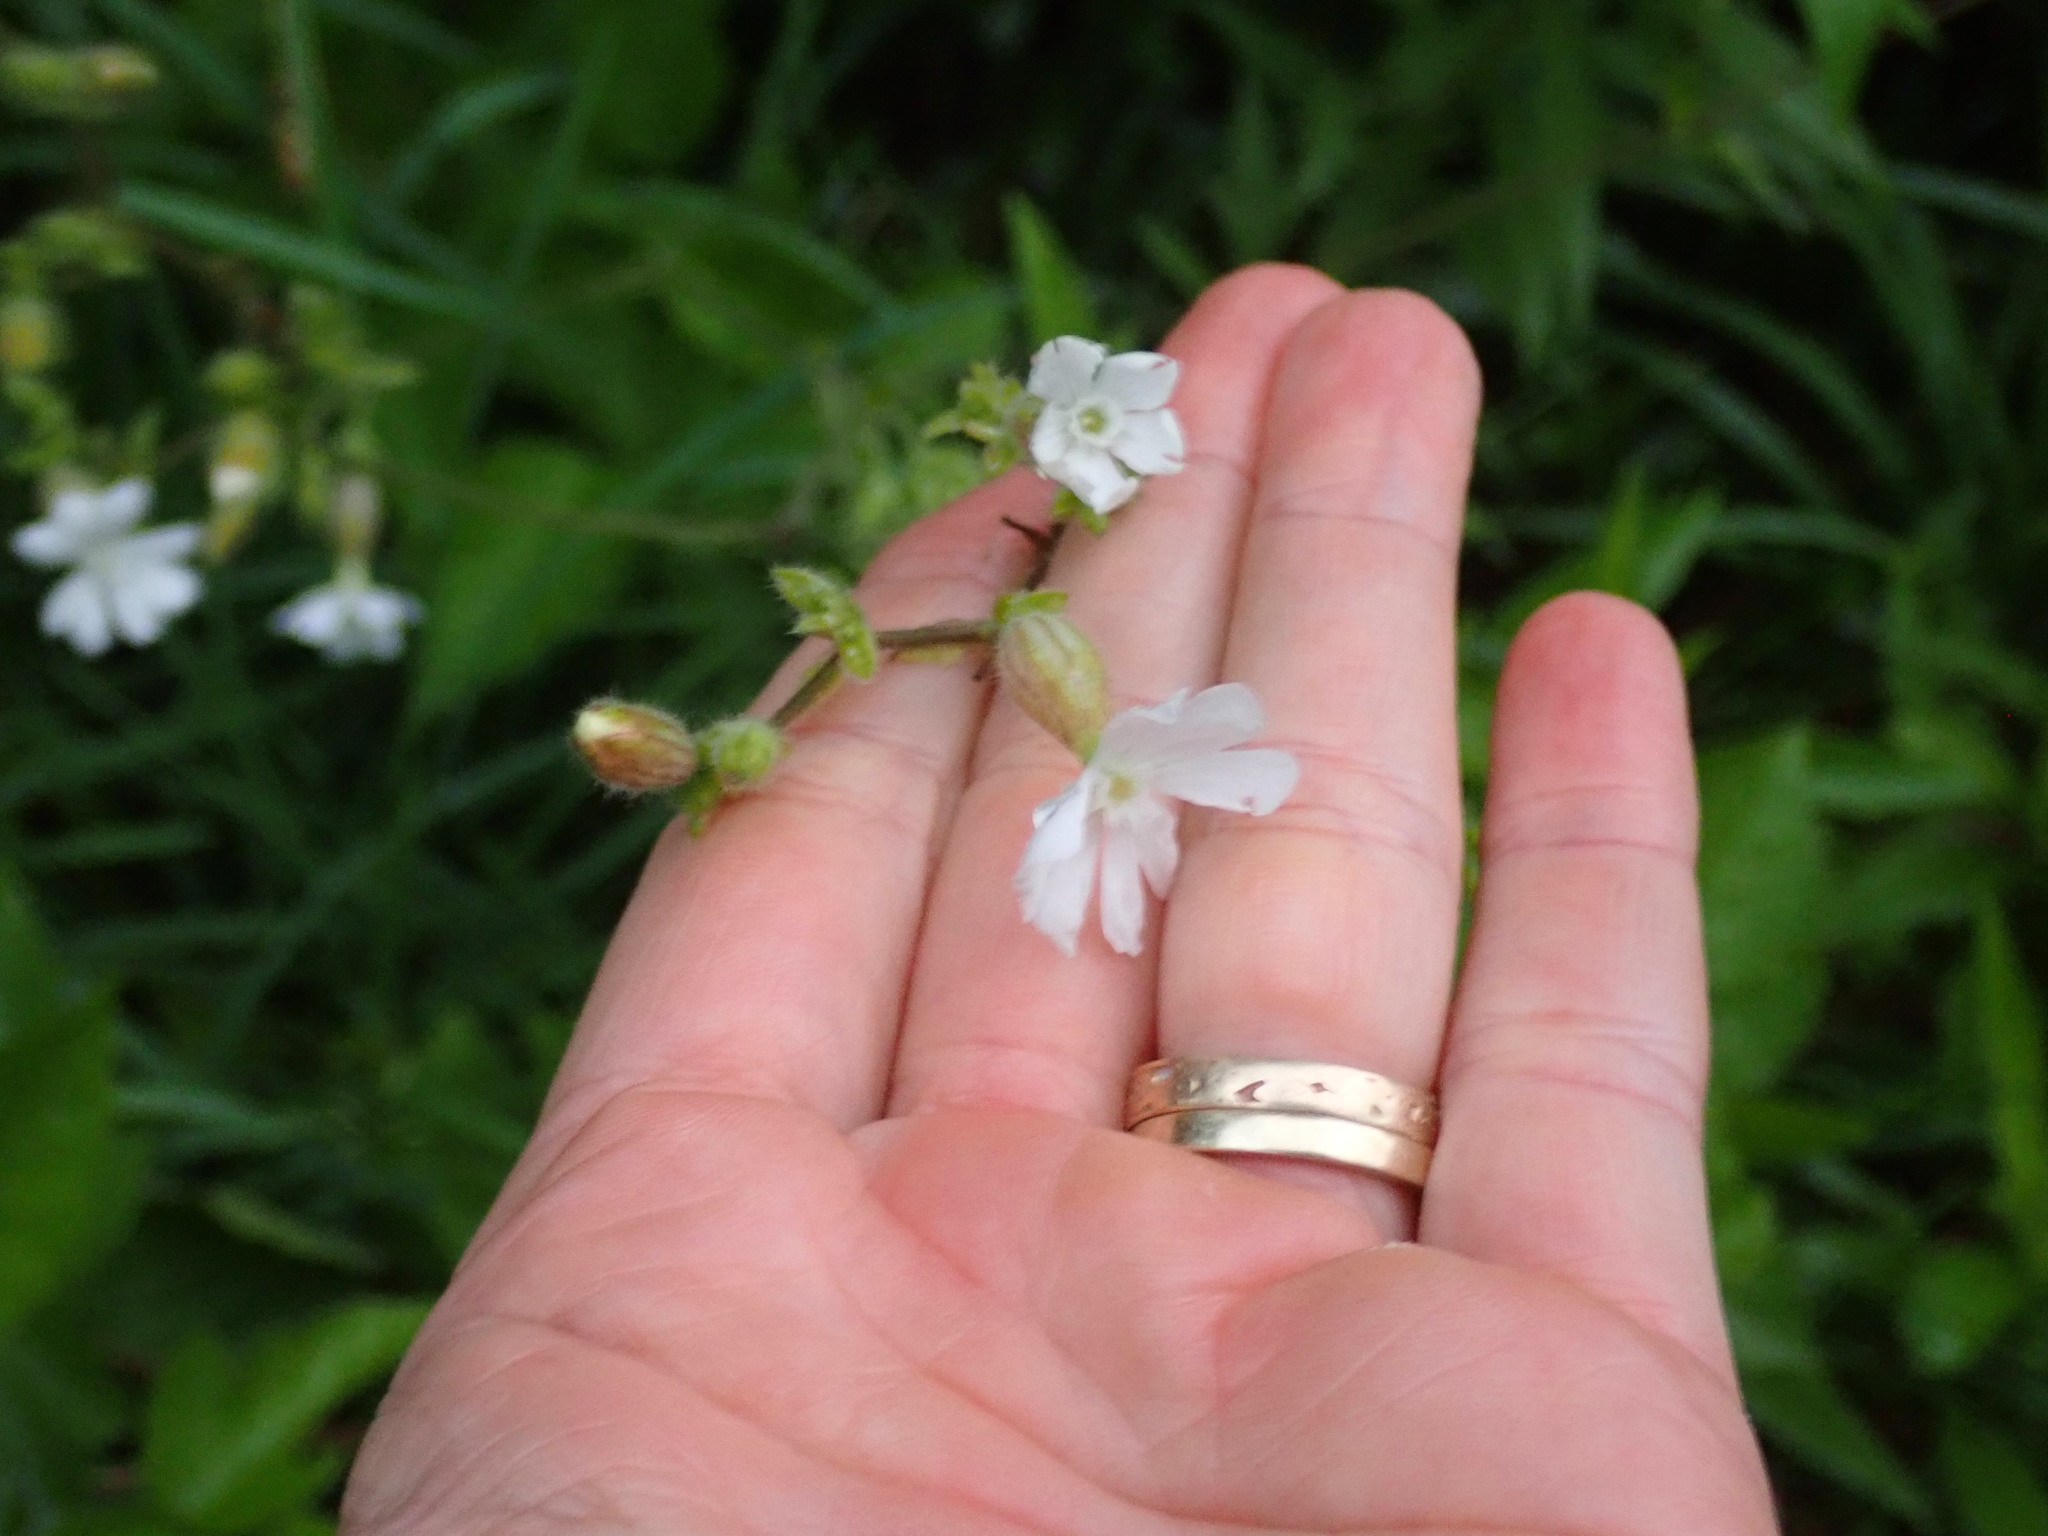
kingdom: Plantae
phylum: Tracheophyta
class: Magnoliopsida
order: Caryophyllales
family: Caryophyllaceae
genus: Silene
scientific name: Silene latifolia
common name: White campion
